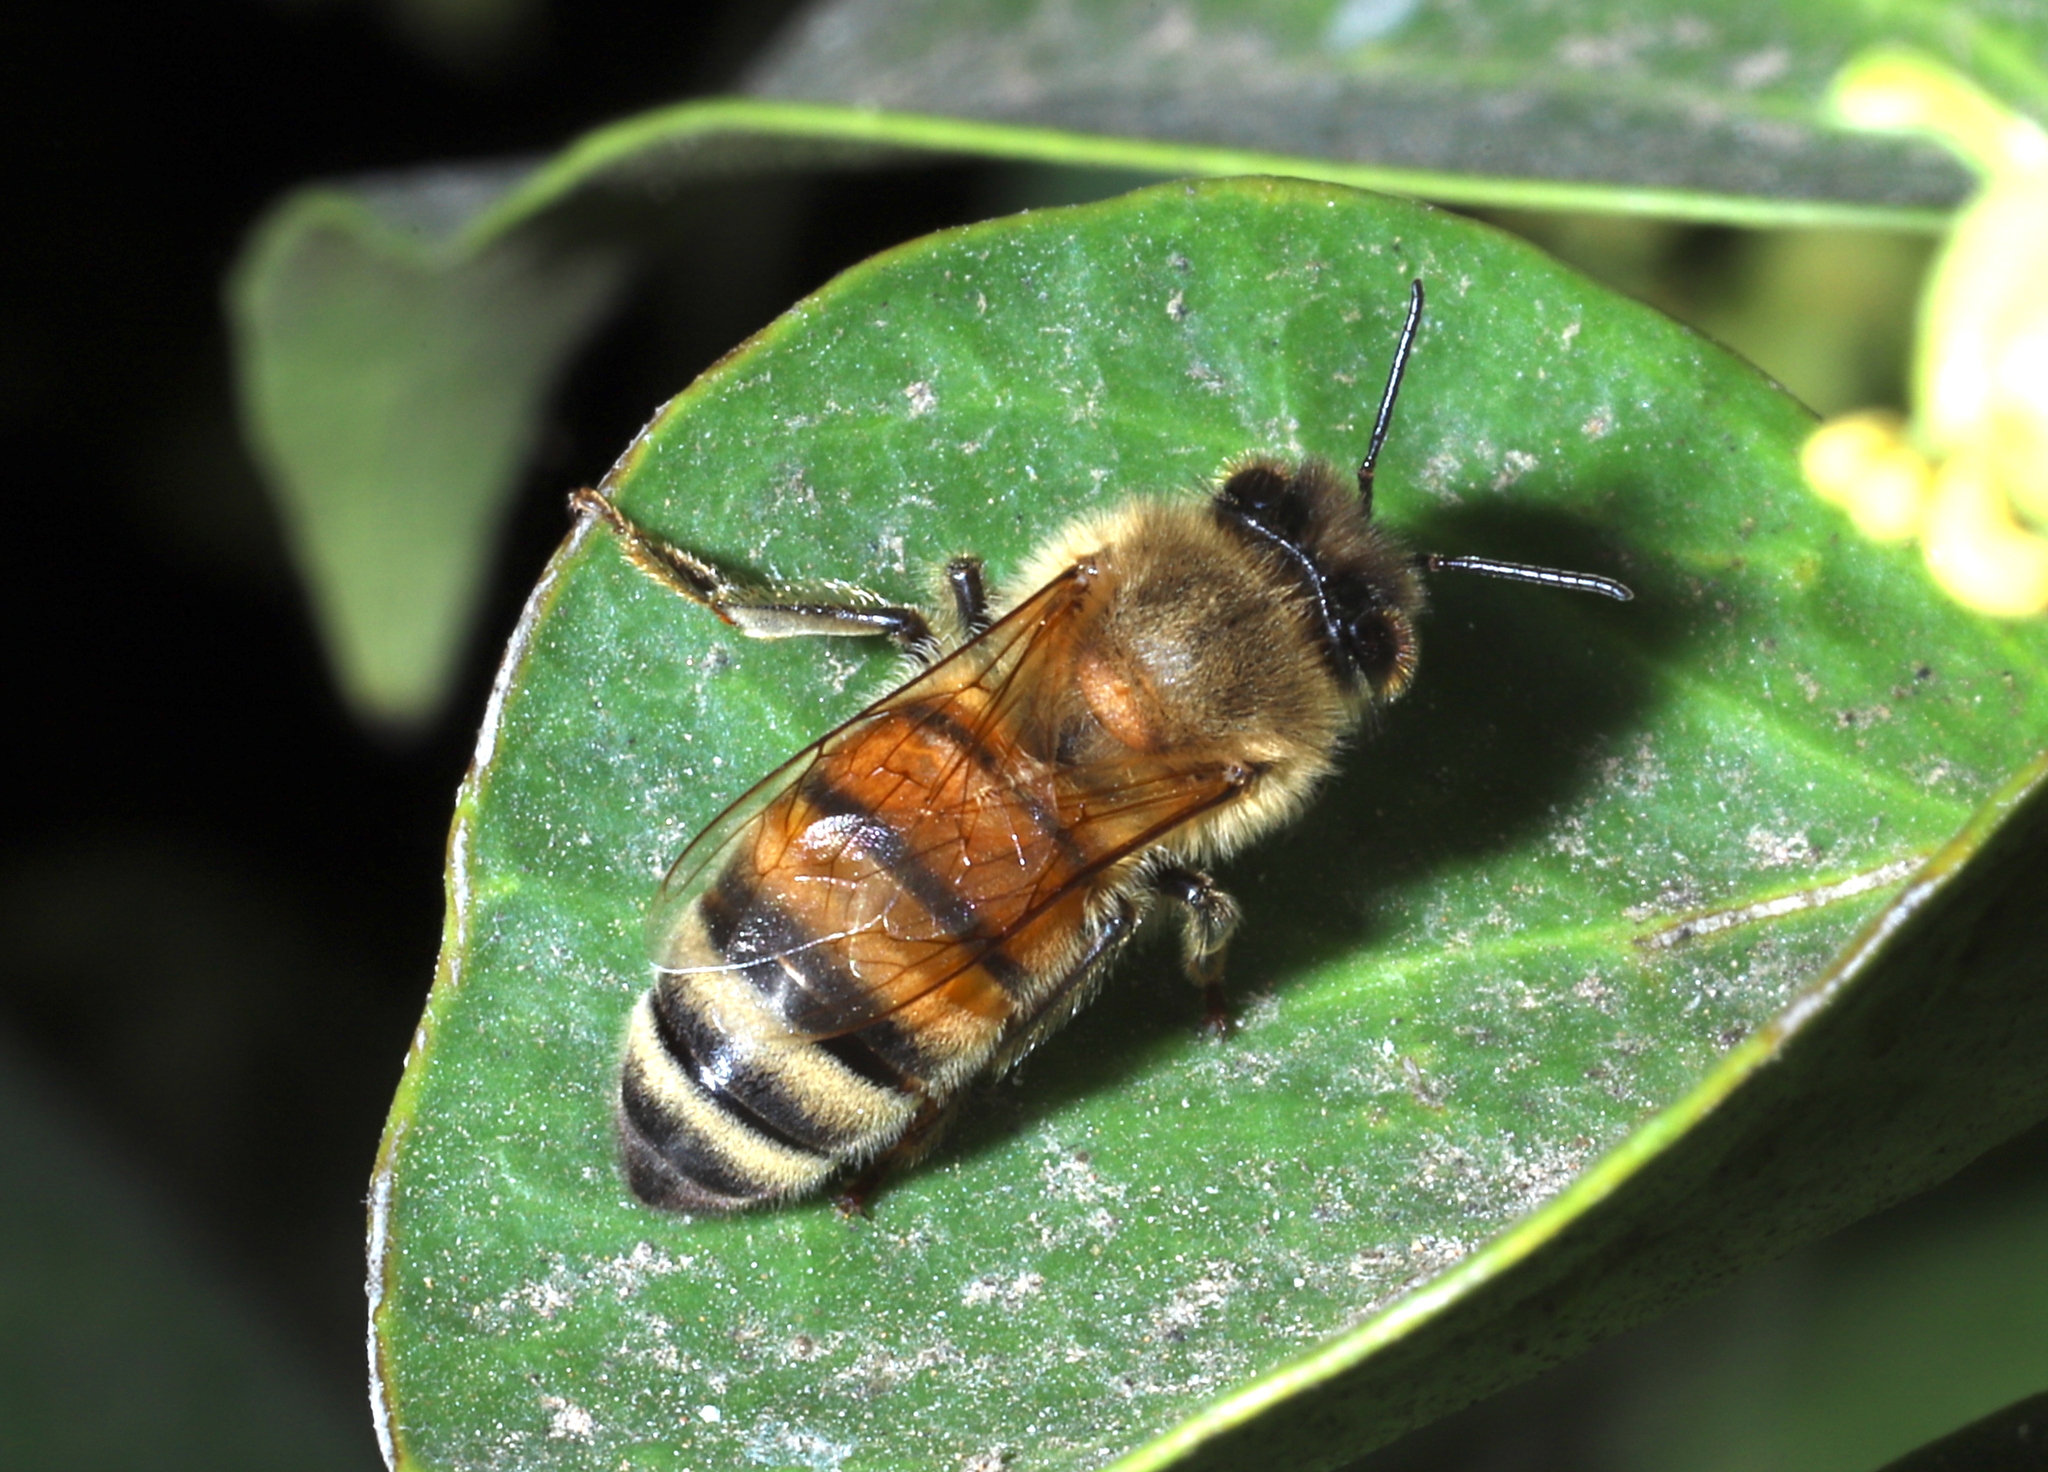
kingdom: Animalia
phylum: Arthropoda
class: Insecta
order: Hymenoptera
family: Apidae
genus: Apis
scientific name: Apis mellifera
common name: Honey bee
